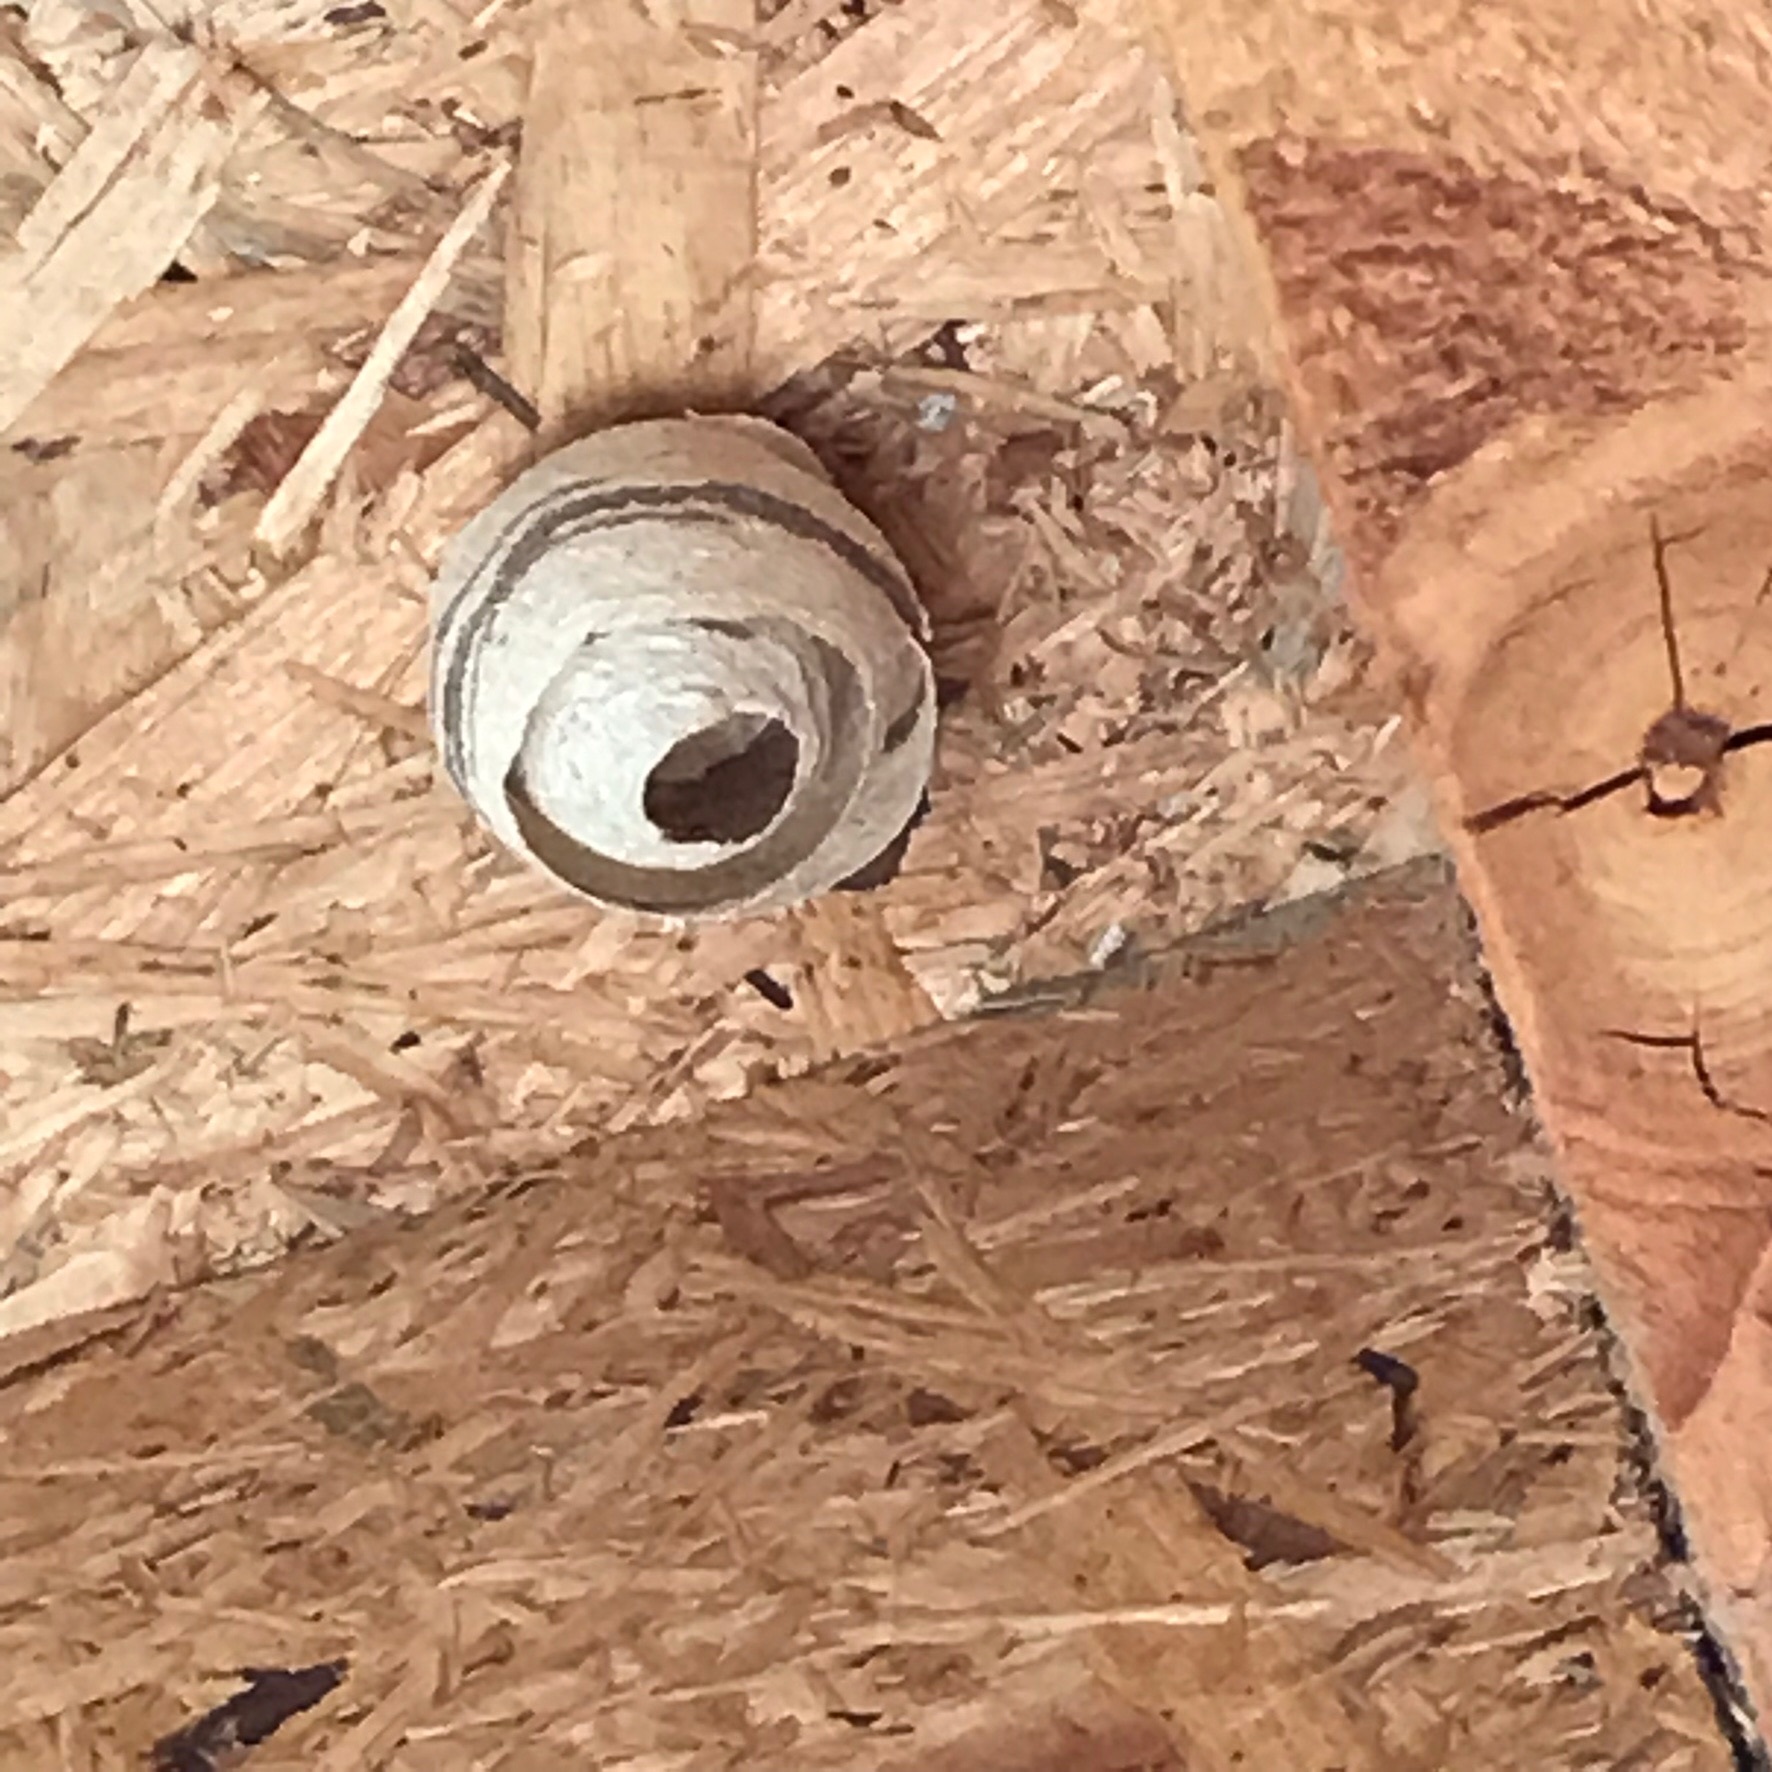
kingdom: Animalia
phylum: Arthropoda
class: Insecta
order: Hymenoptera
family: Vespidae
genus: Vespa
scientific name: Vespa crabro
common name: Hornet
